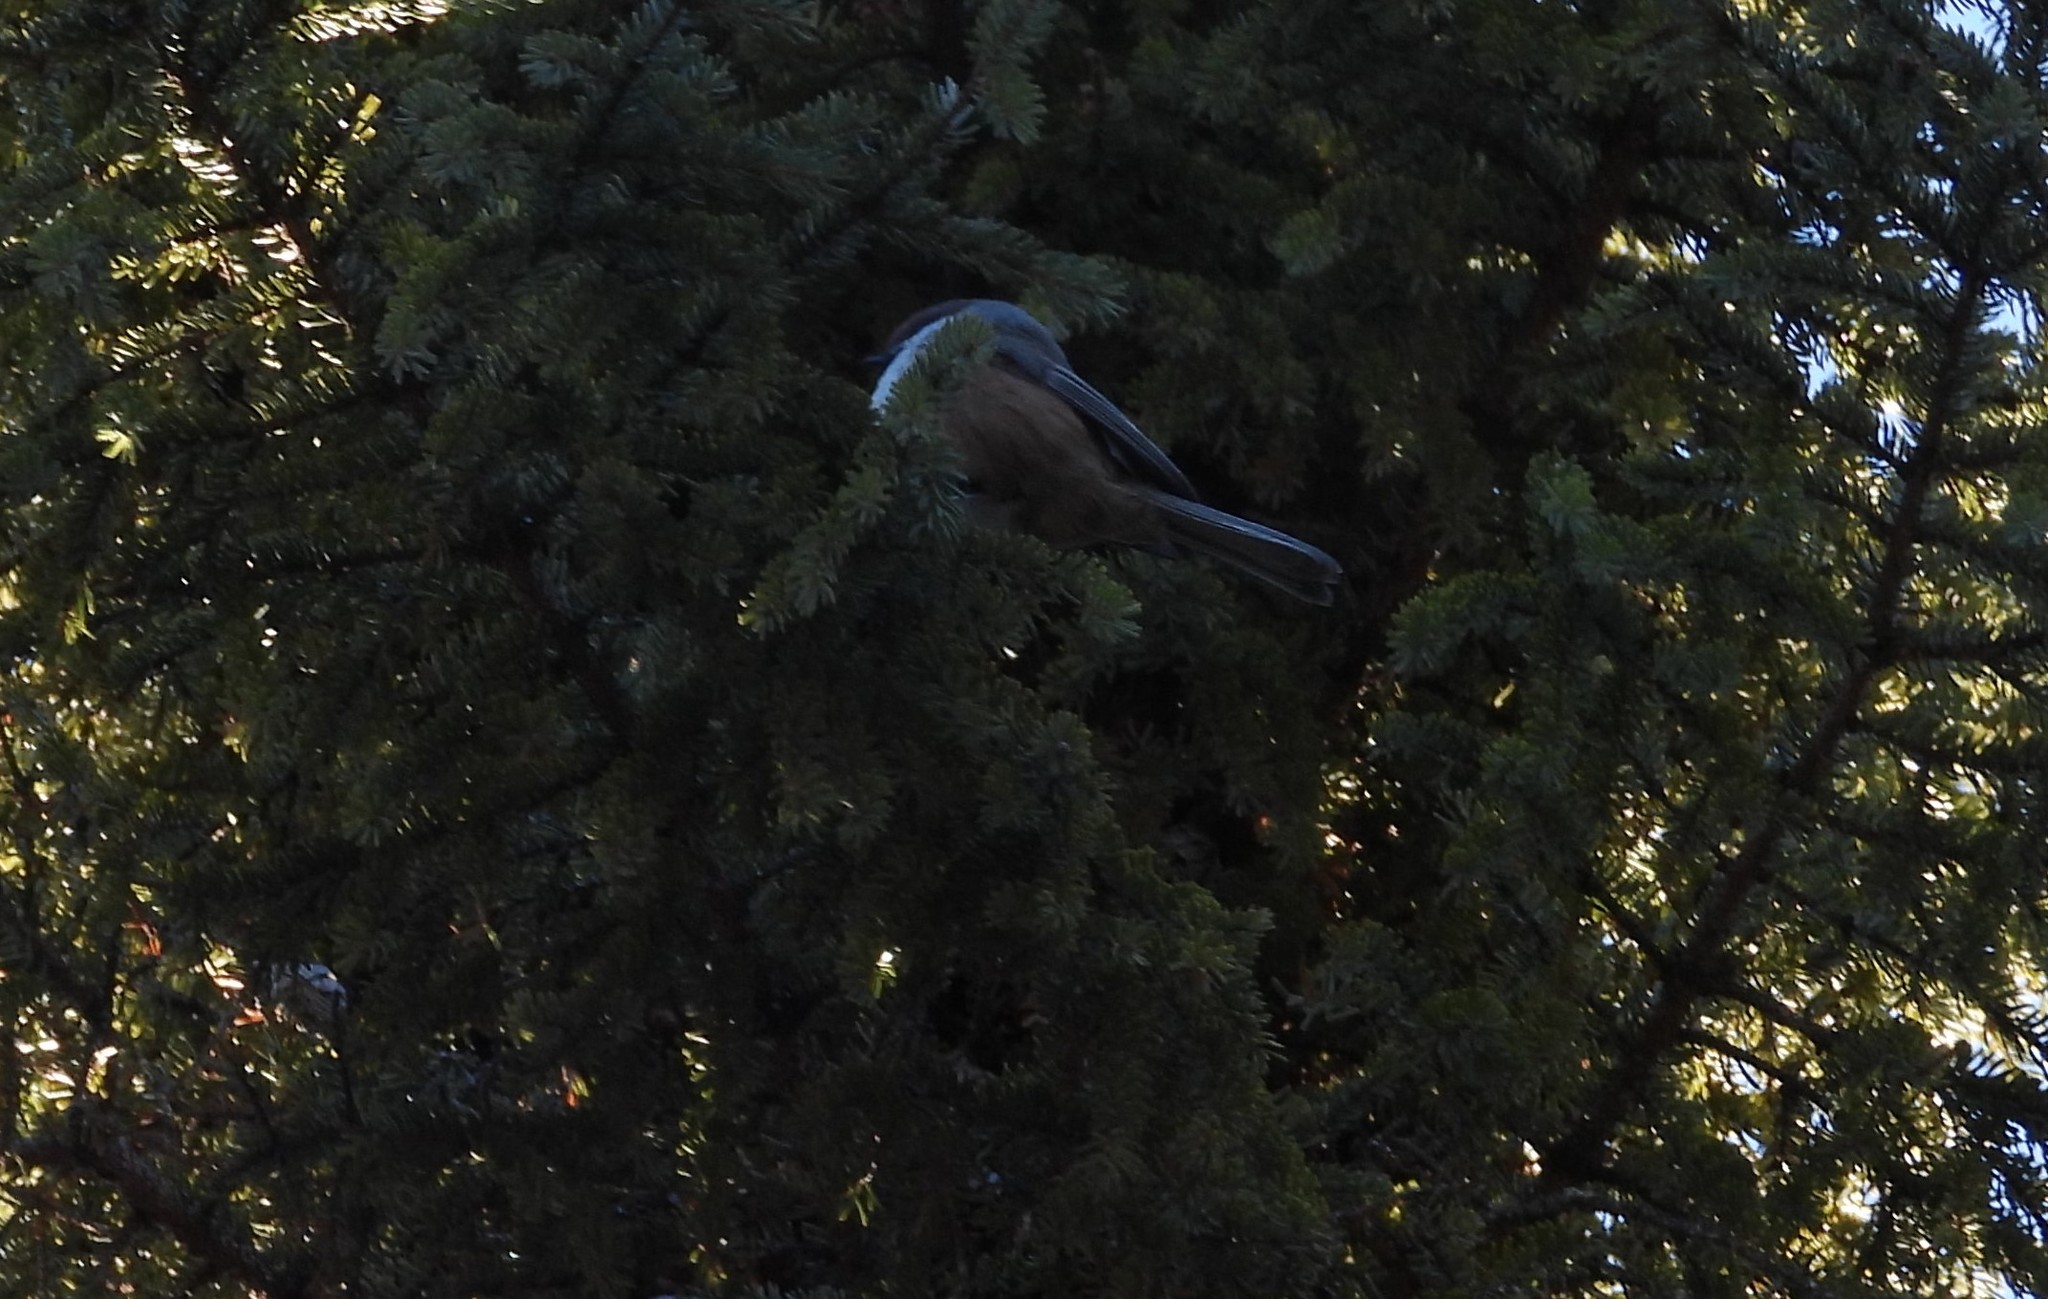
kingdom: Animalia
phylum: Chordata
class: Aves
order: Passeriformes
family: Paridae
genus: Poecile
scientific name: Poecile hudsonicus
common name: Boreal chickadee
